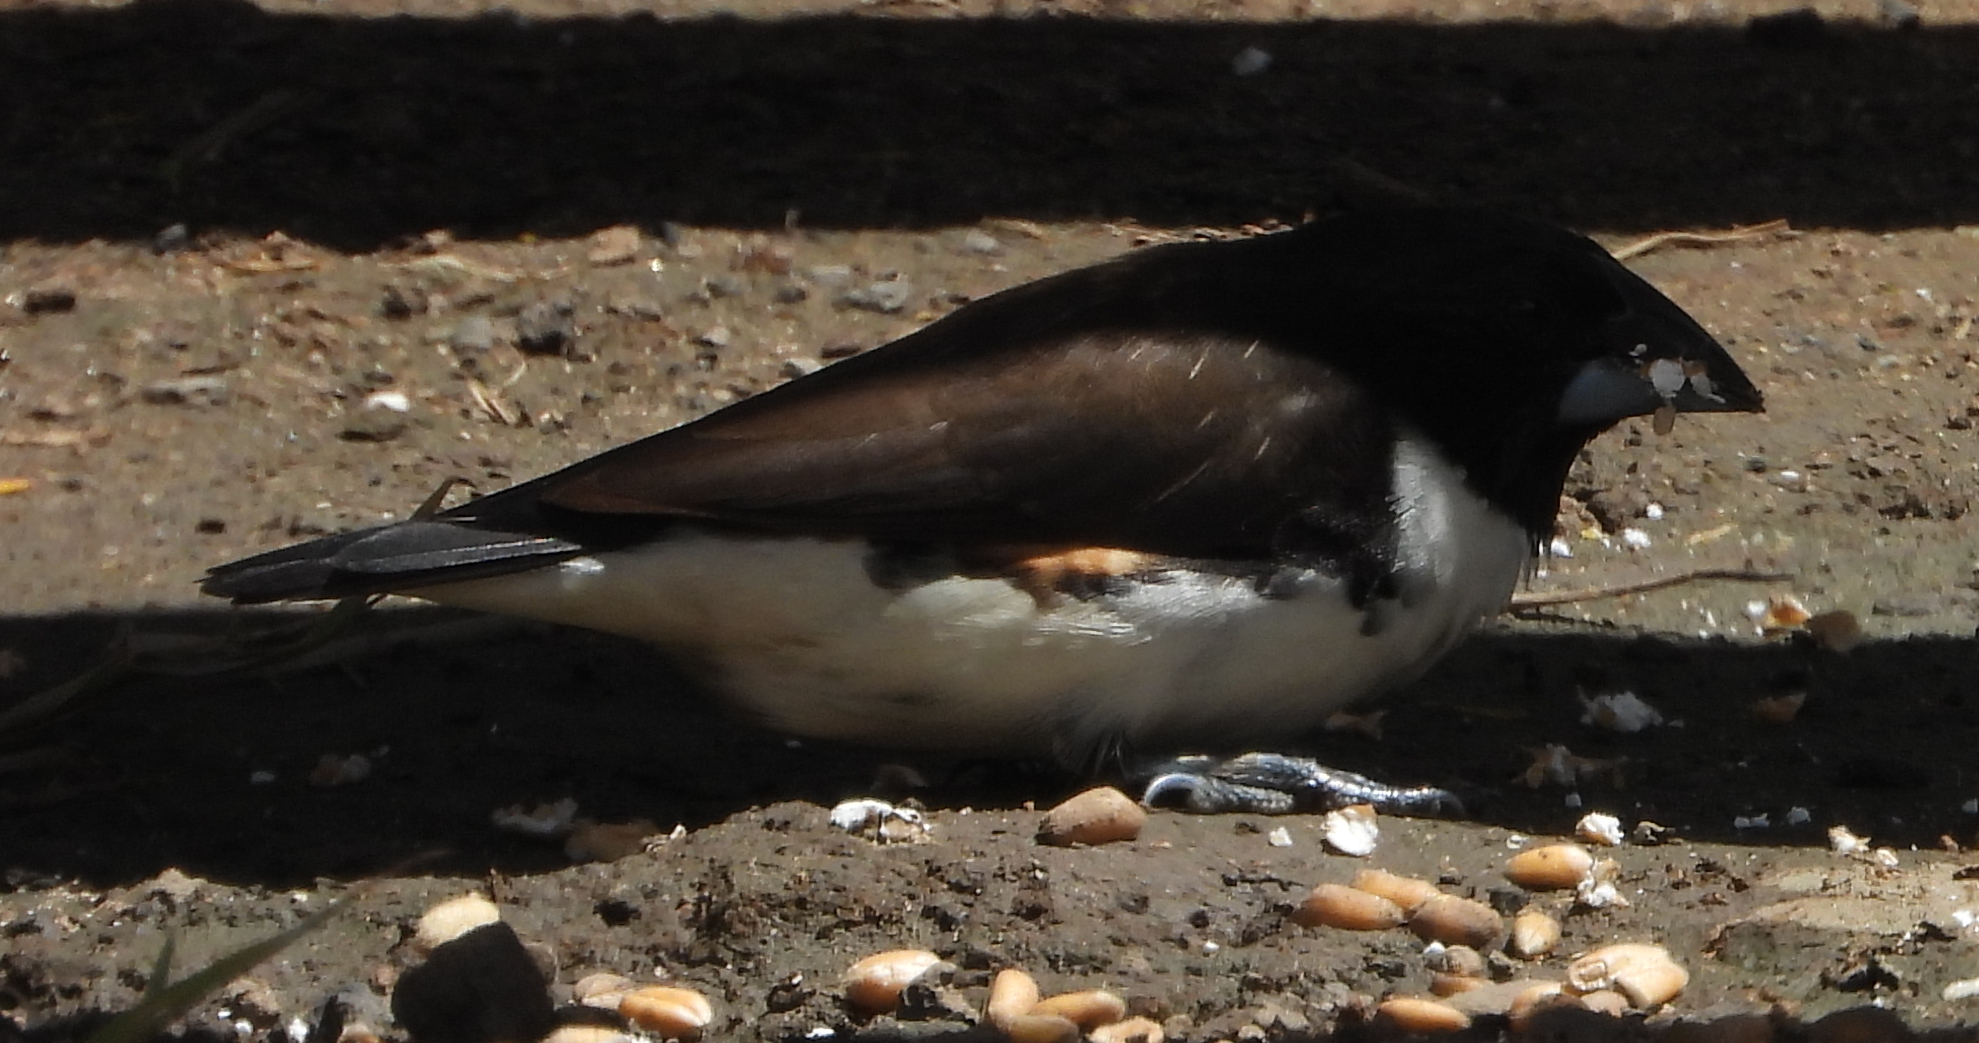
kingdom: Animalia
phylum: Chordata
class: Aves
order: Passeriformes
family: Estrildidae
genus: Lonchura
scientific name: Lonchura fringilloides
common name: Magpie mannikin
